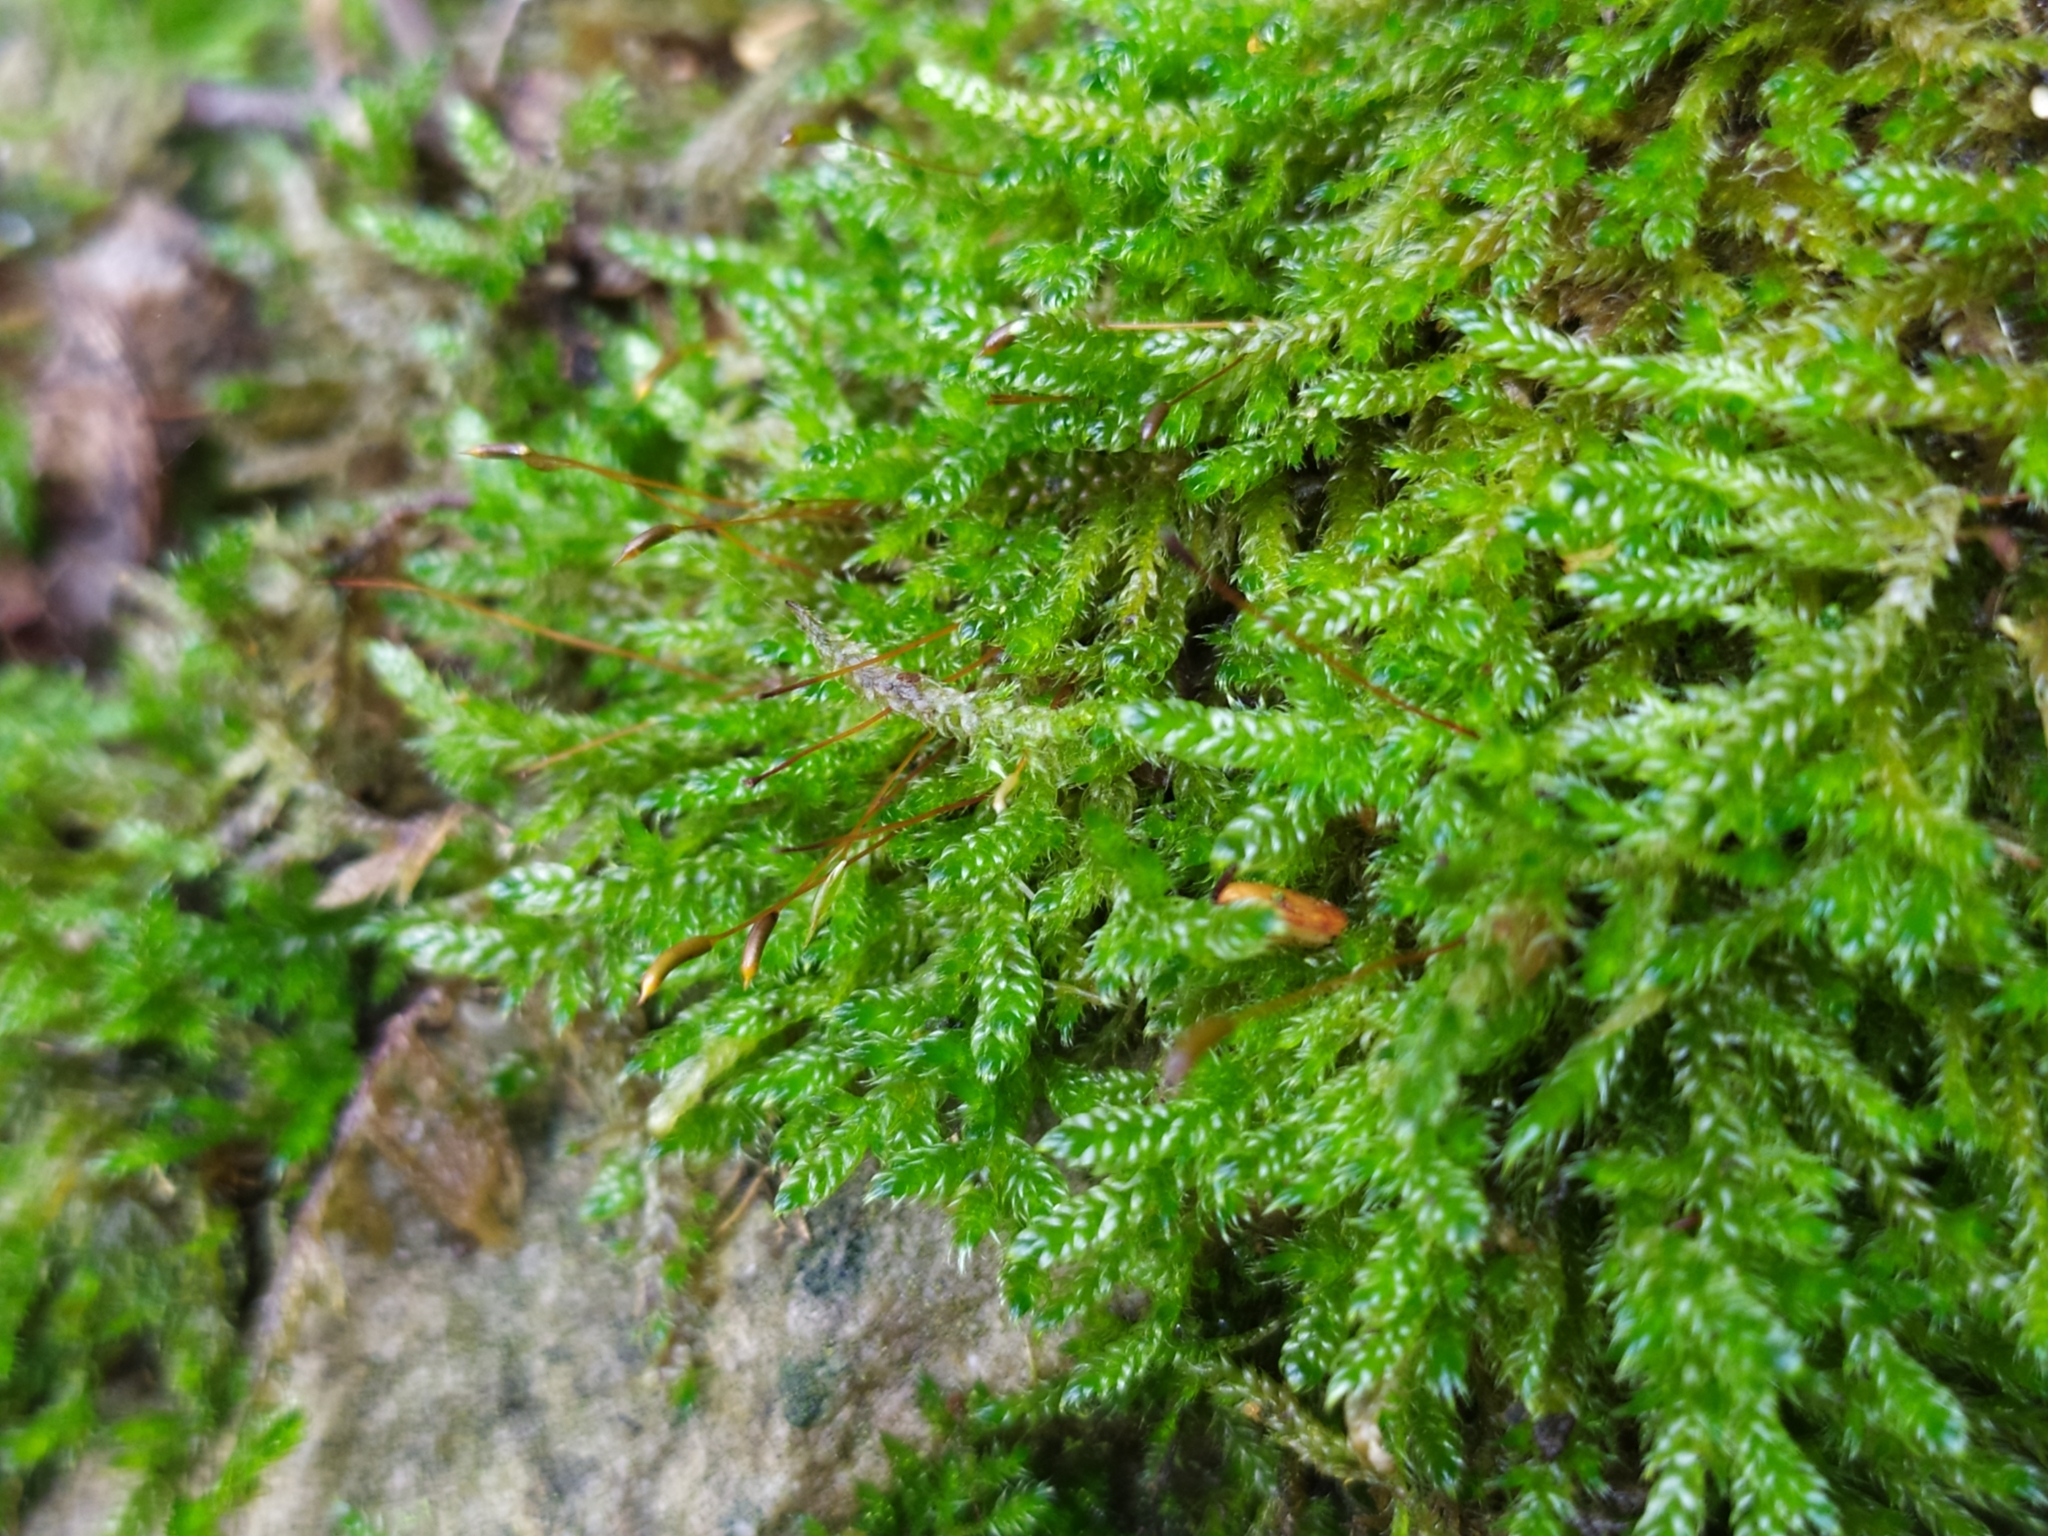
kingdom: Plantae
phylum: Bryophyta
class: Bryopsida
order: Hypnales
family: Hypnaceae
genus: Hypnum
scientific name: Hypnum cupressiforme
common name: Cypress-leaved plait-moss
